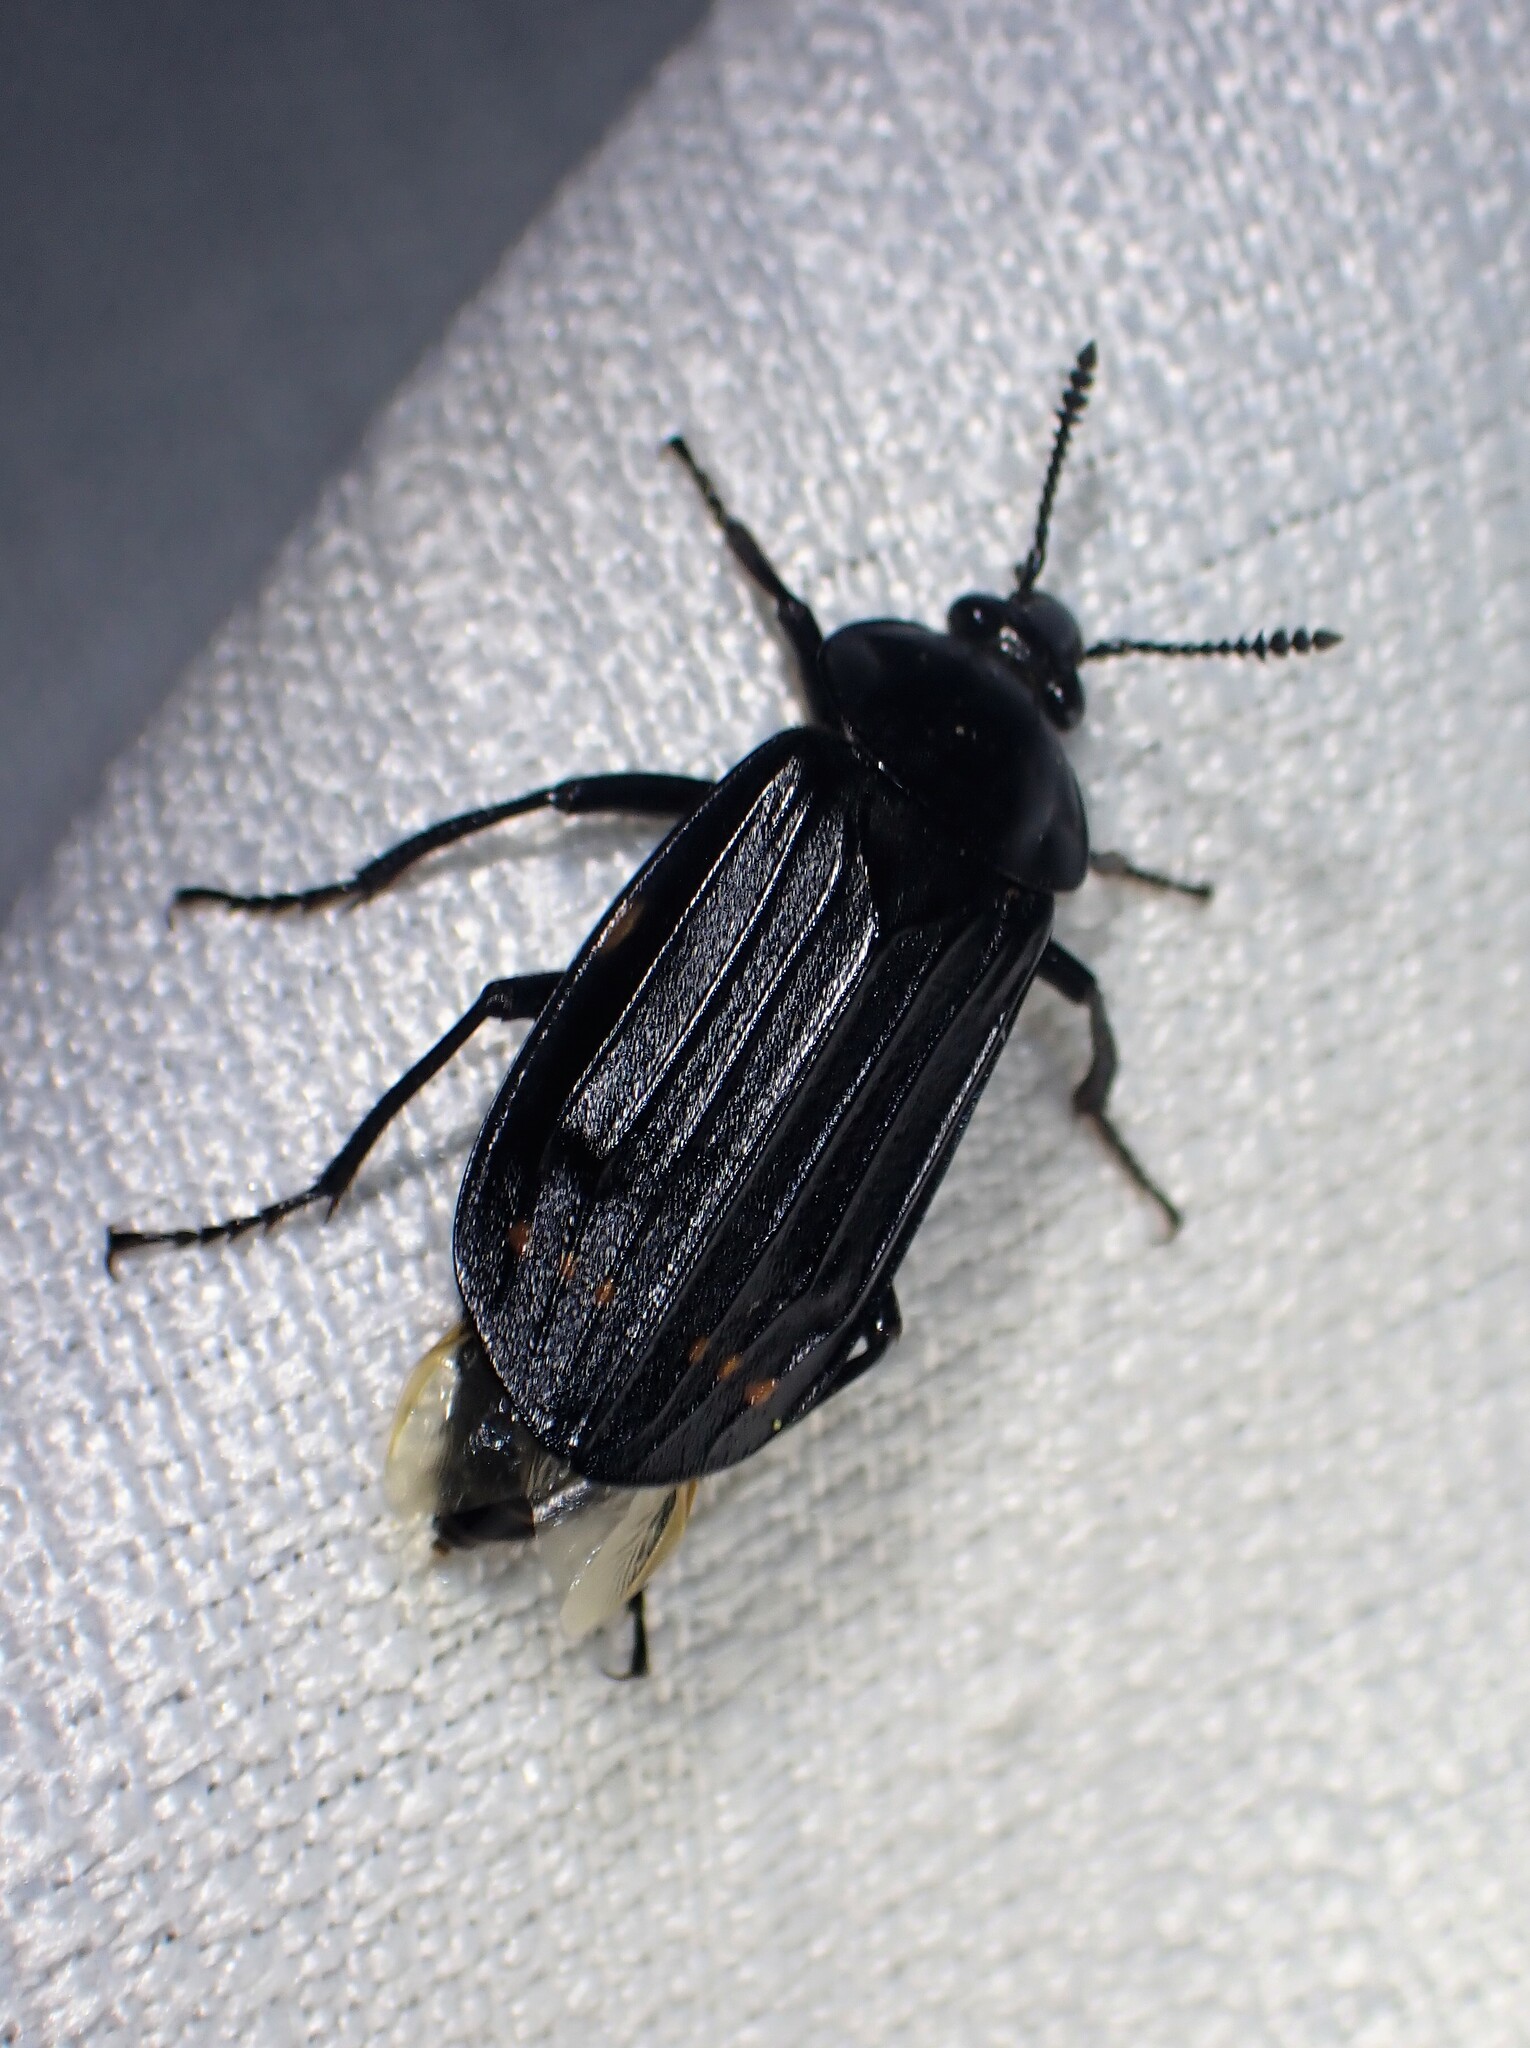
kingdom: Animalia
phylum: Arthropoda
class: Insecta
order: Coleoptera
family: Staphylinidae
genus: Necrodes
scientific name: Necrodes surinamensis
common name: Red-lined carrion beetle
